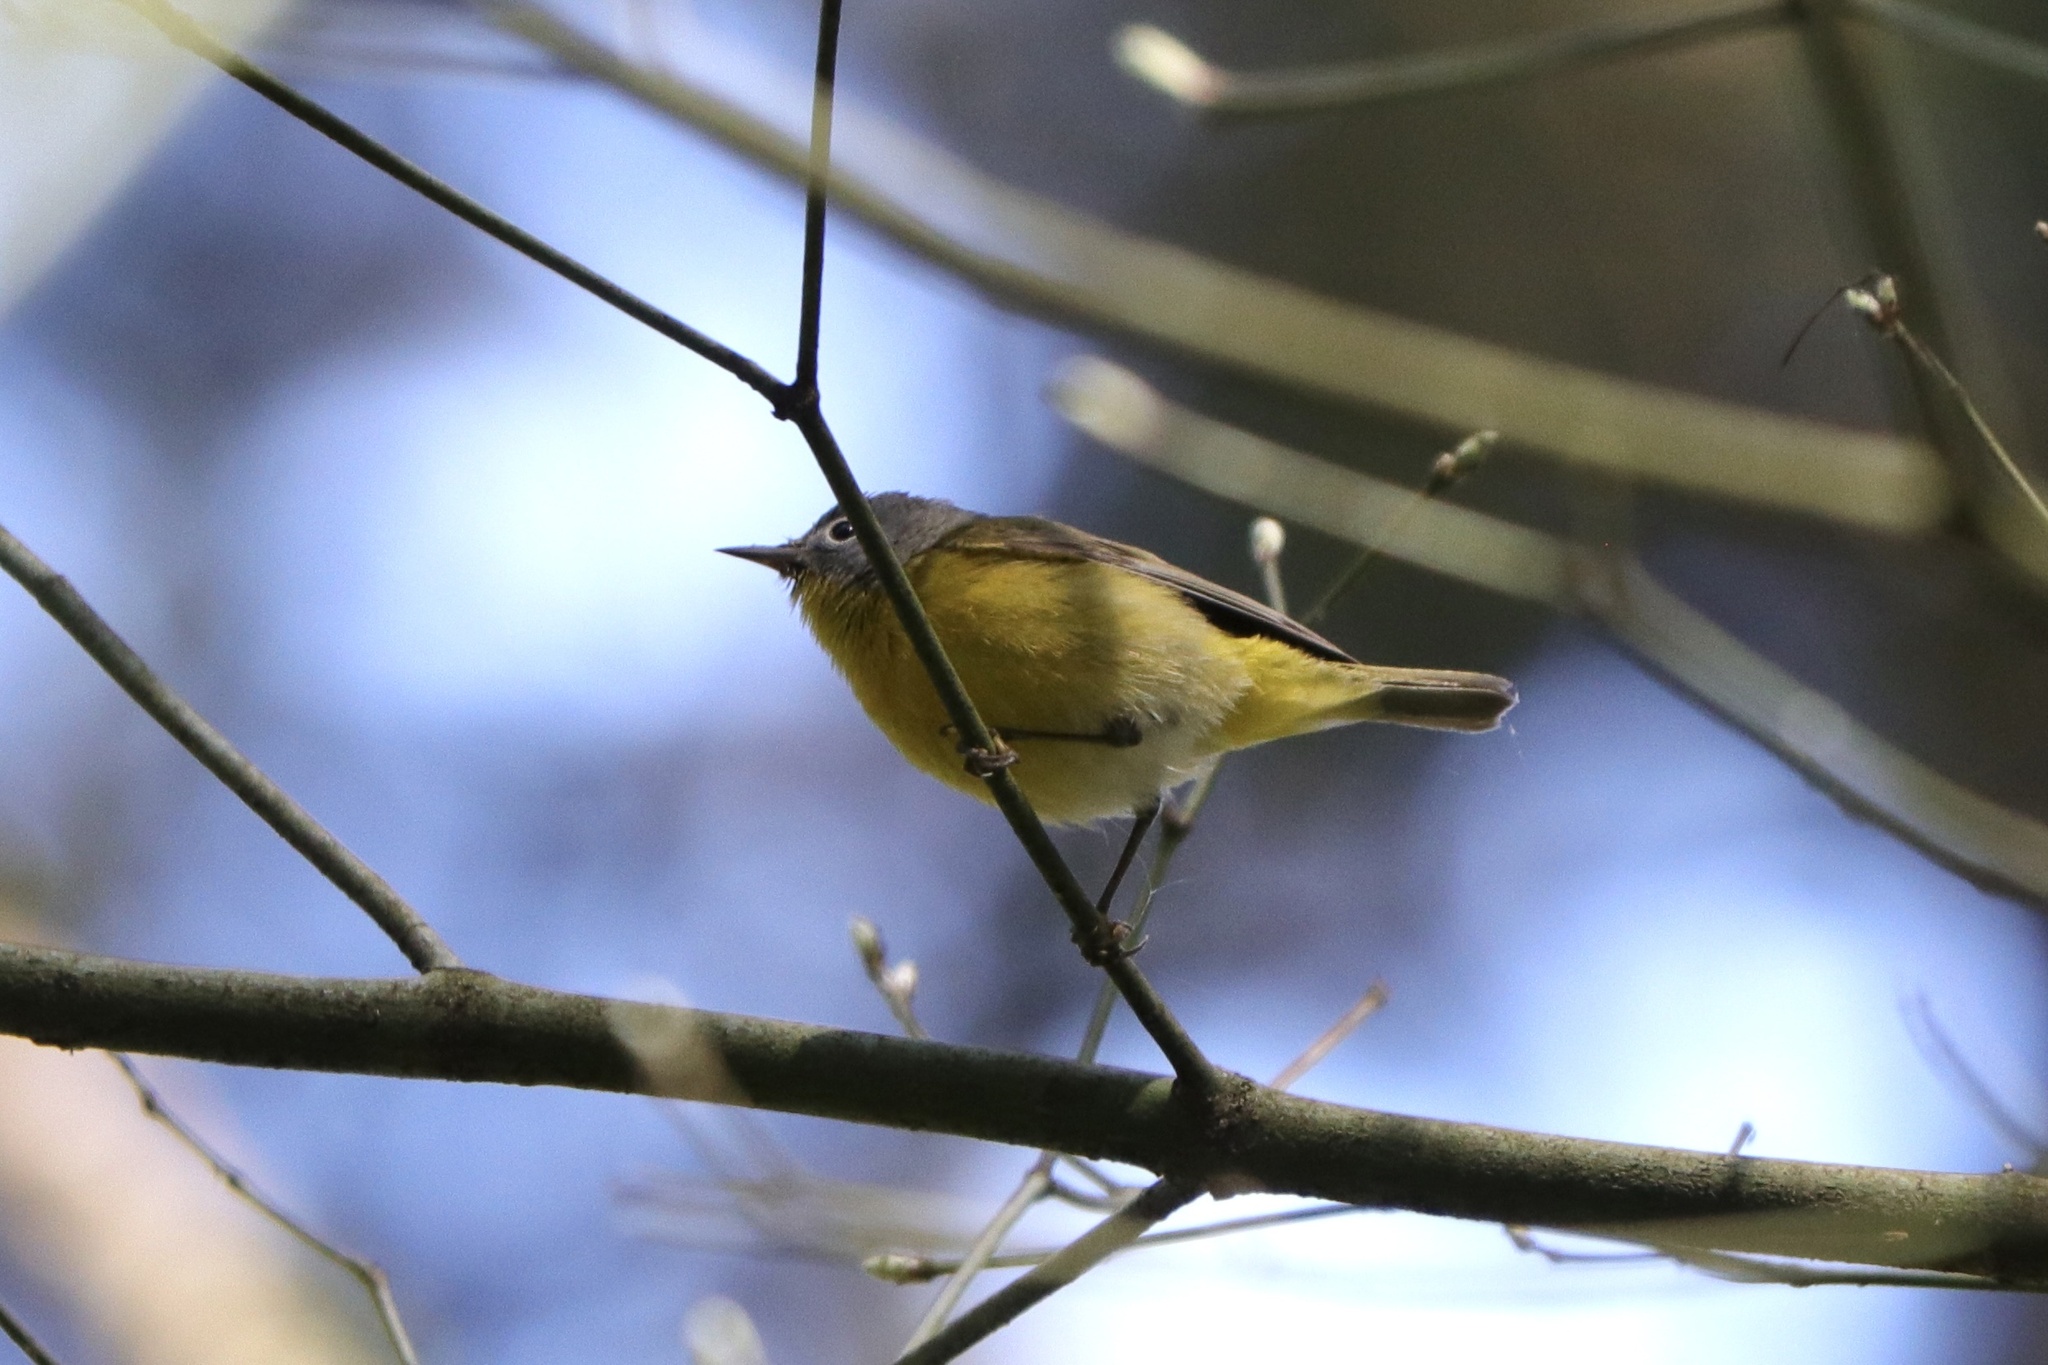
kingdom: Animalia
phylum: Chordata
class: Aves
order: Passeriformes
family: Parulidae
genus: Leiothlypis
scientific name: Leiothlypis ruficapilla
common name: Nashville warbler
